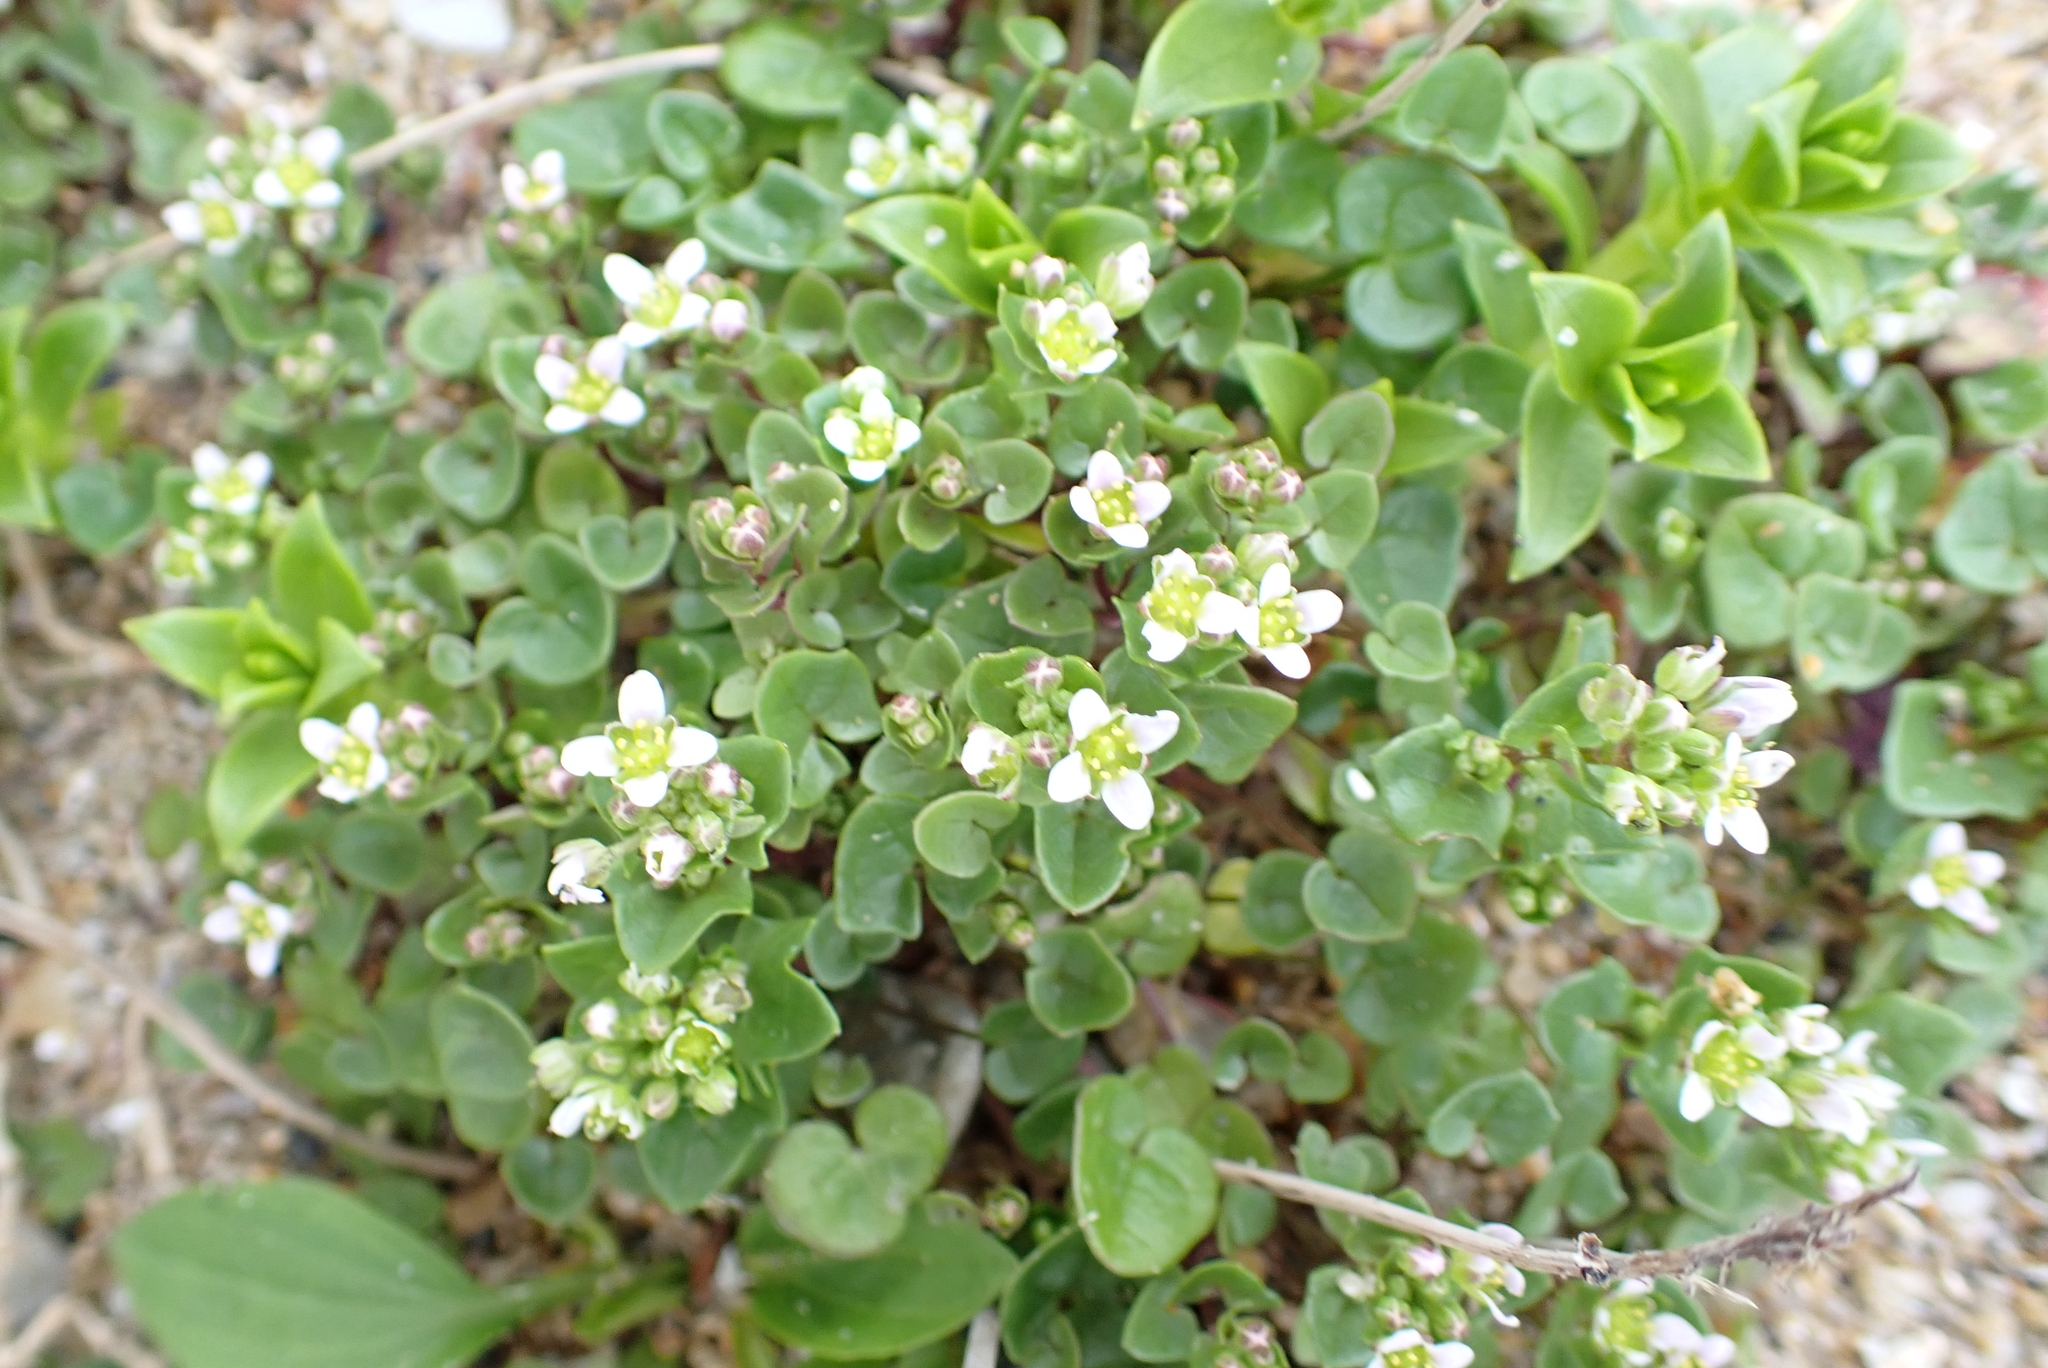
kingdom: Plantae
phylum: Tracheophyta
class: Magnoliopsida
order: Brassicales
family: Brassicaceae
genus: Cochlearia
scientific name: Cochlearia danica
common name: Early scurvygrass
